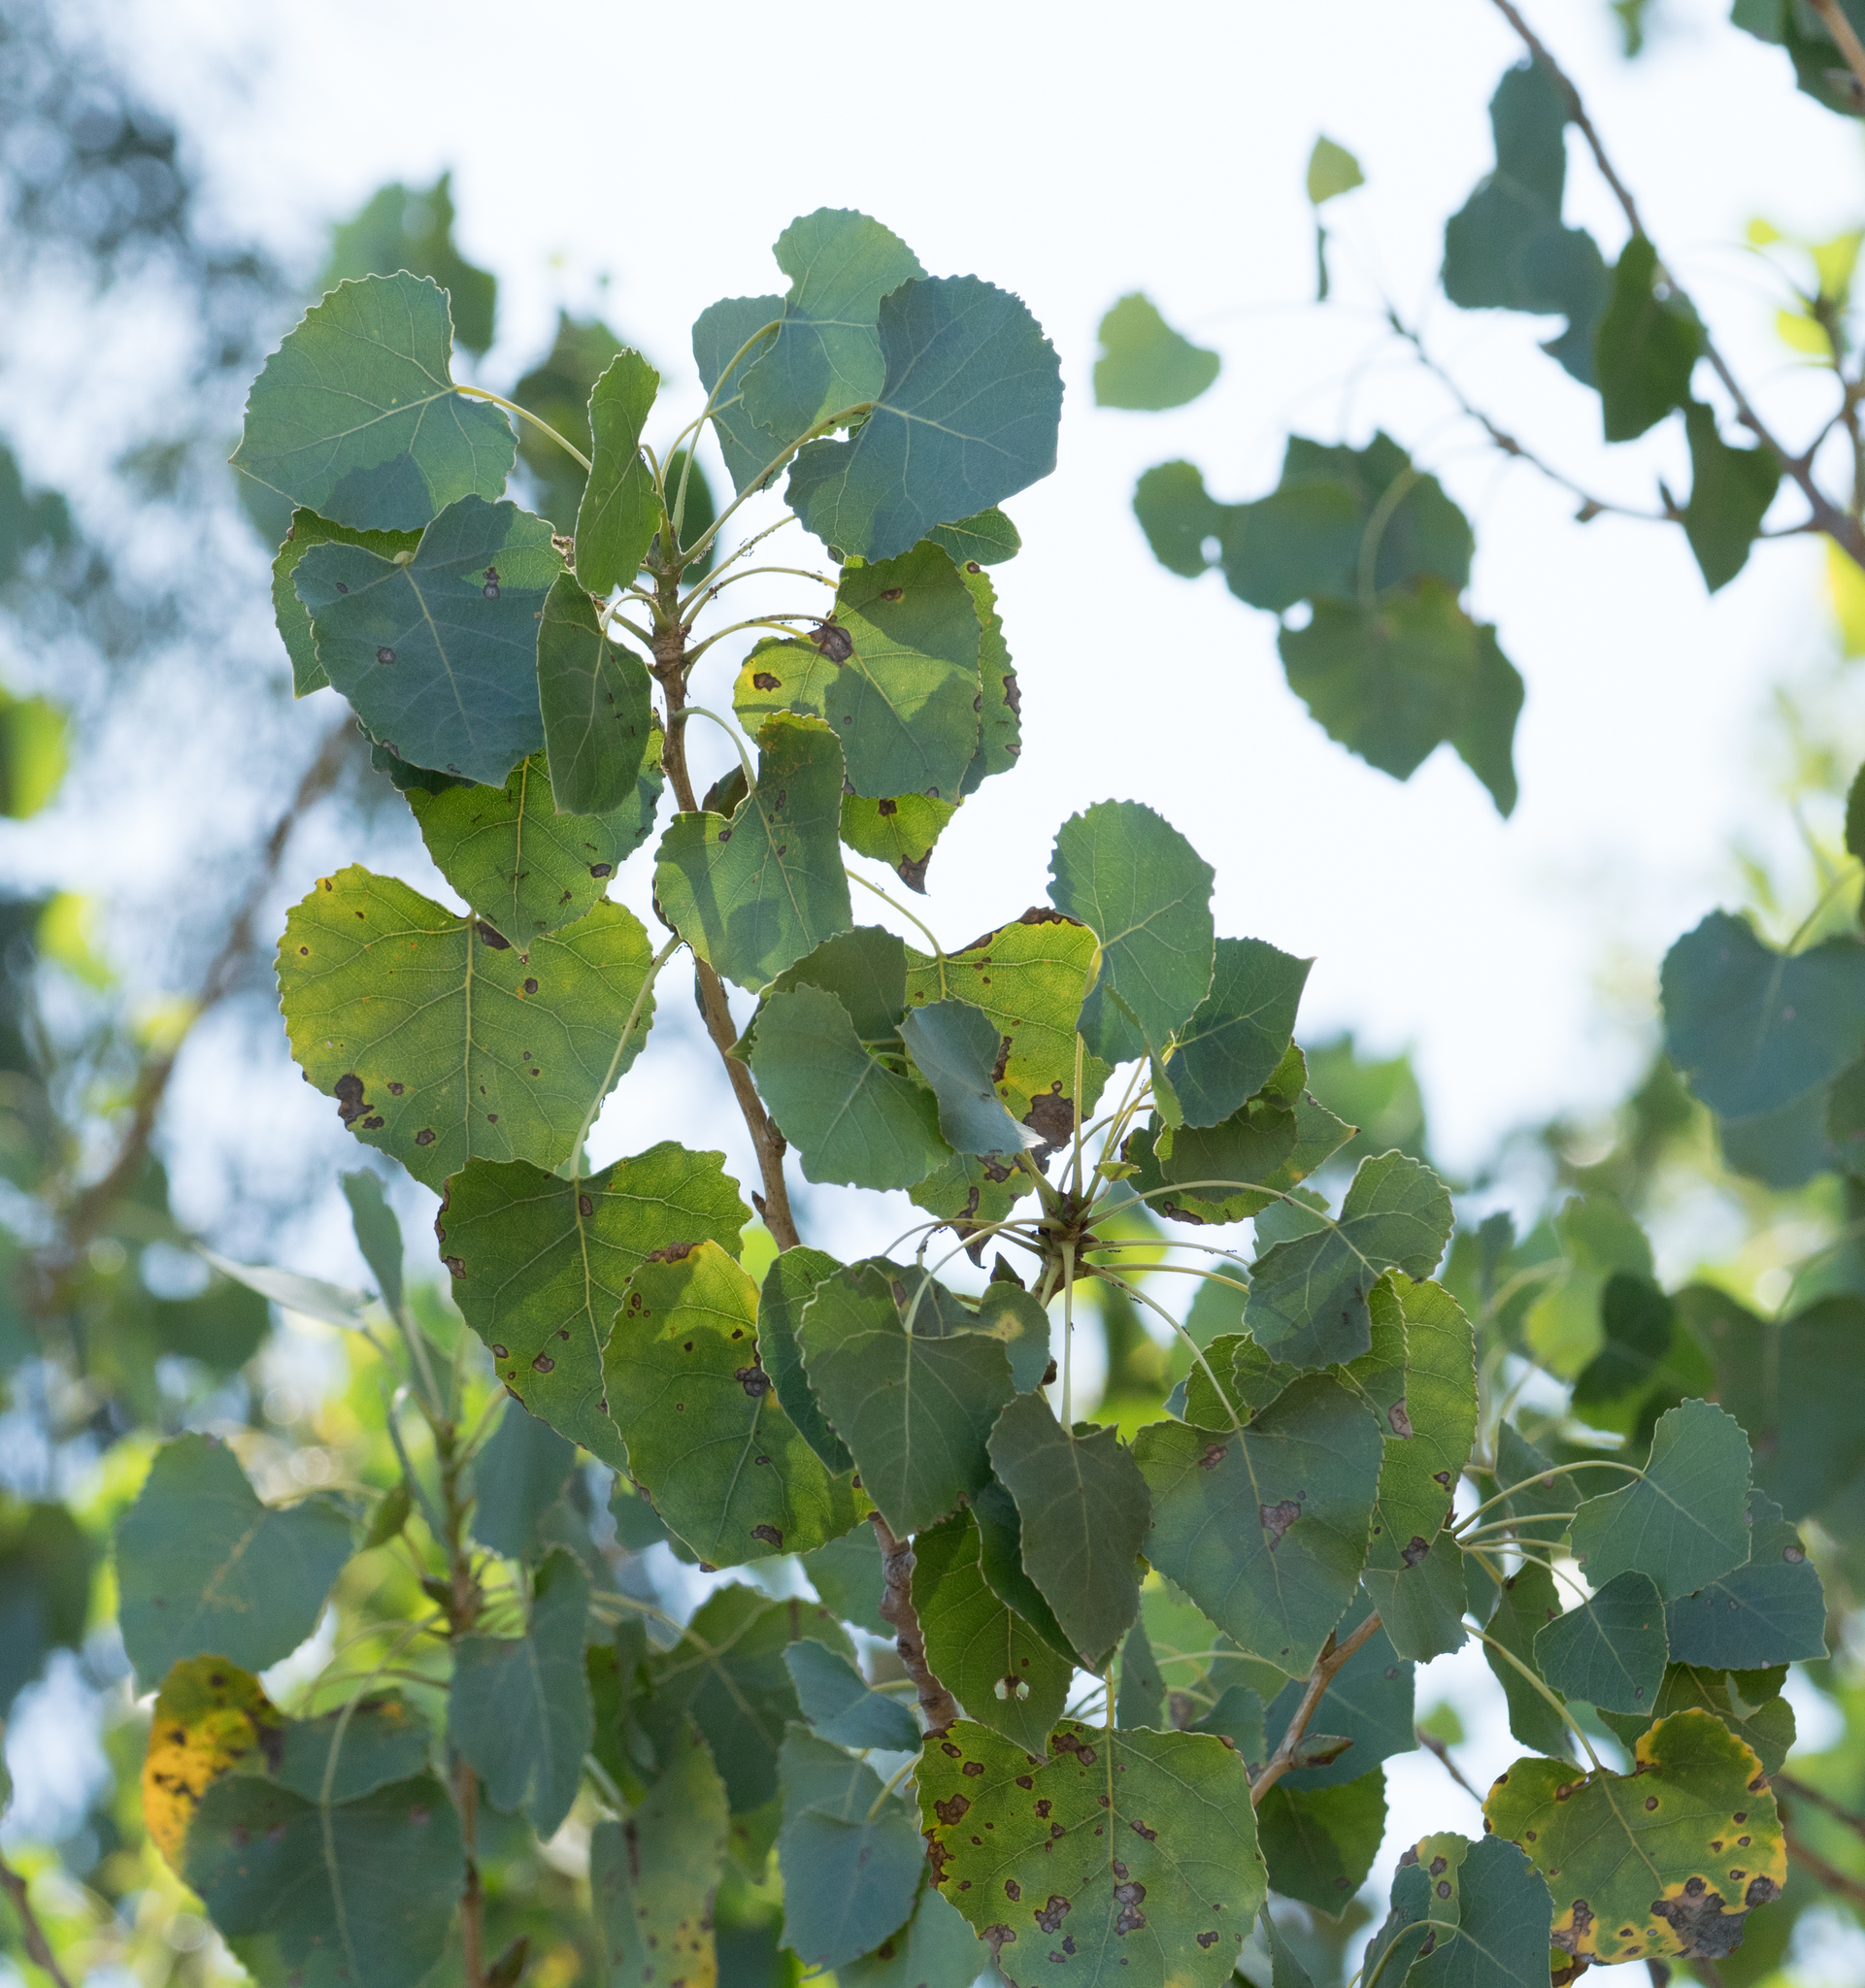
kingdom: Plantae
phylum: Tracheophyta
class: Magnoliopsida
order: Malpighiales
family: Salicaceae
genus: Populus
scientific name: Populus fremontii
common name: Fremont's cottonwood
